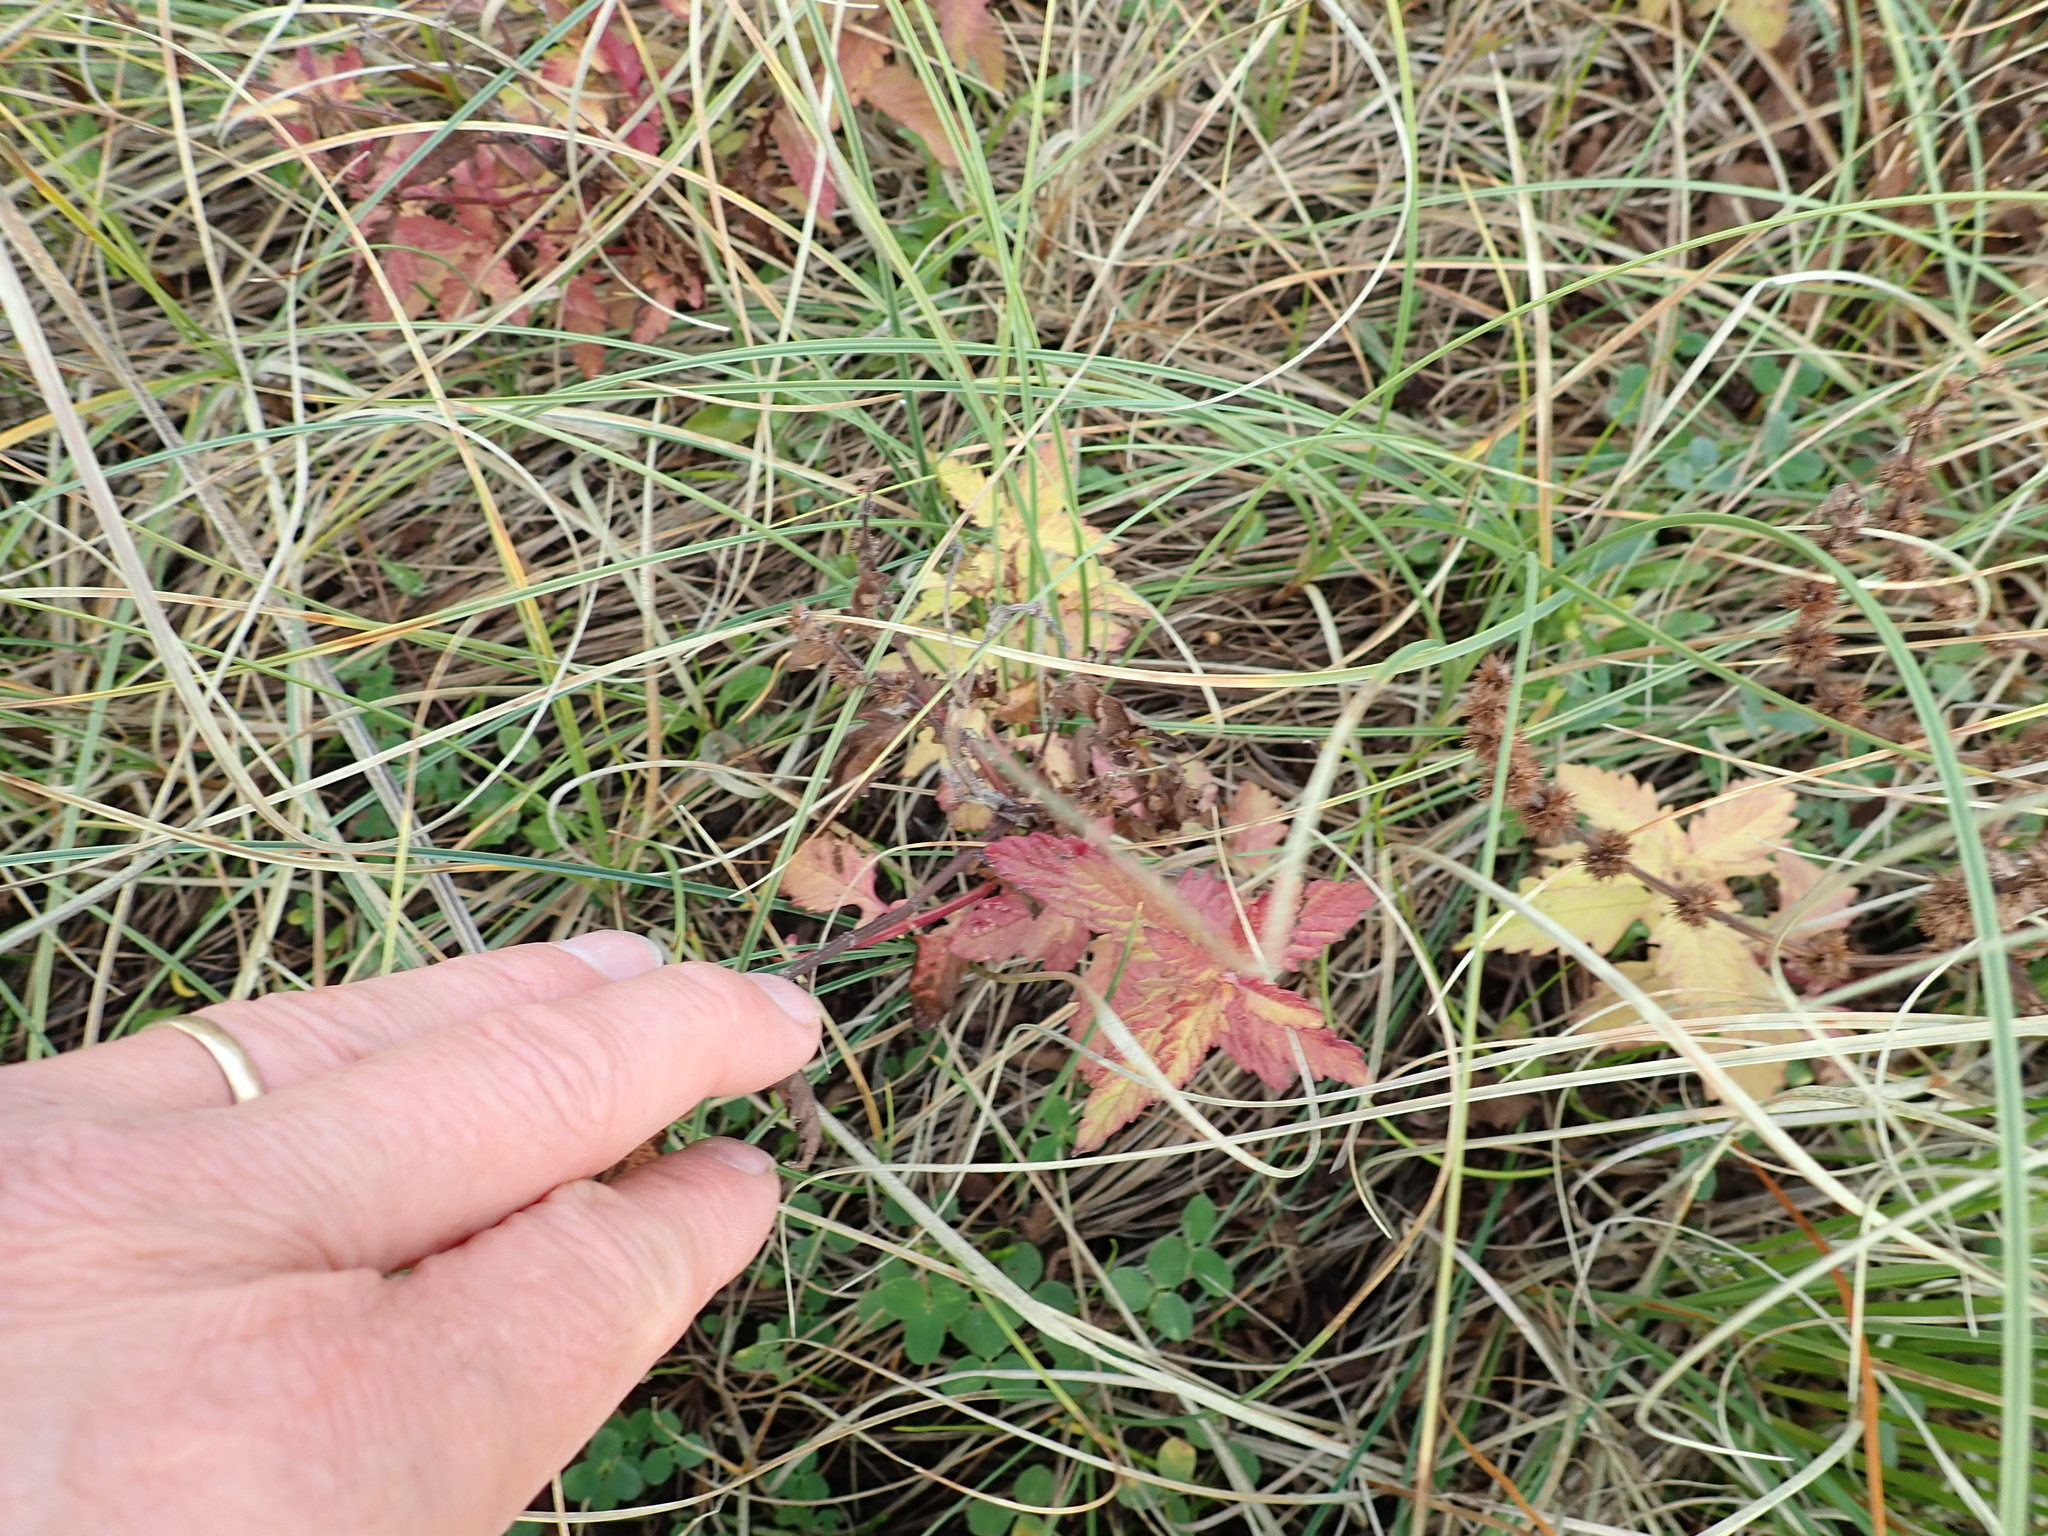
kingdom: Plantae
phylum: Tracheophyta
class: Magnoliopsida
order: Lamiales
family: Lamiaceae
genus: Lycopus
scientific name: Lycopus europaeus
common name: European bugleweed
